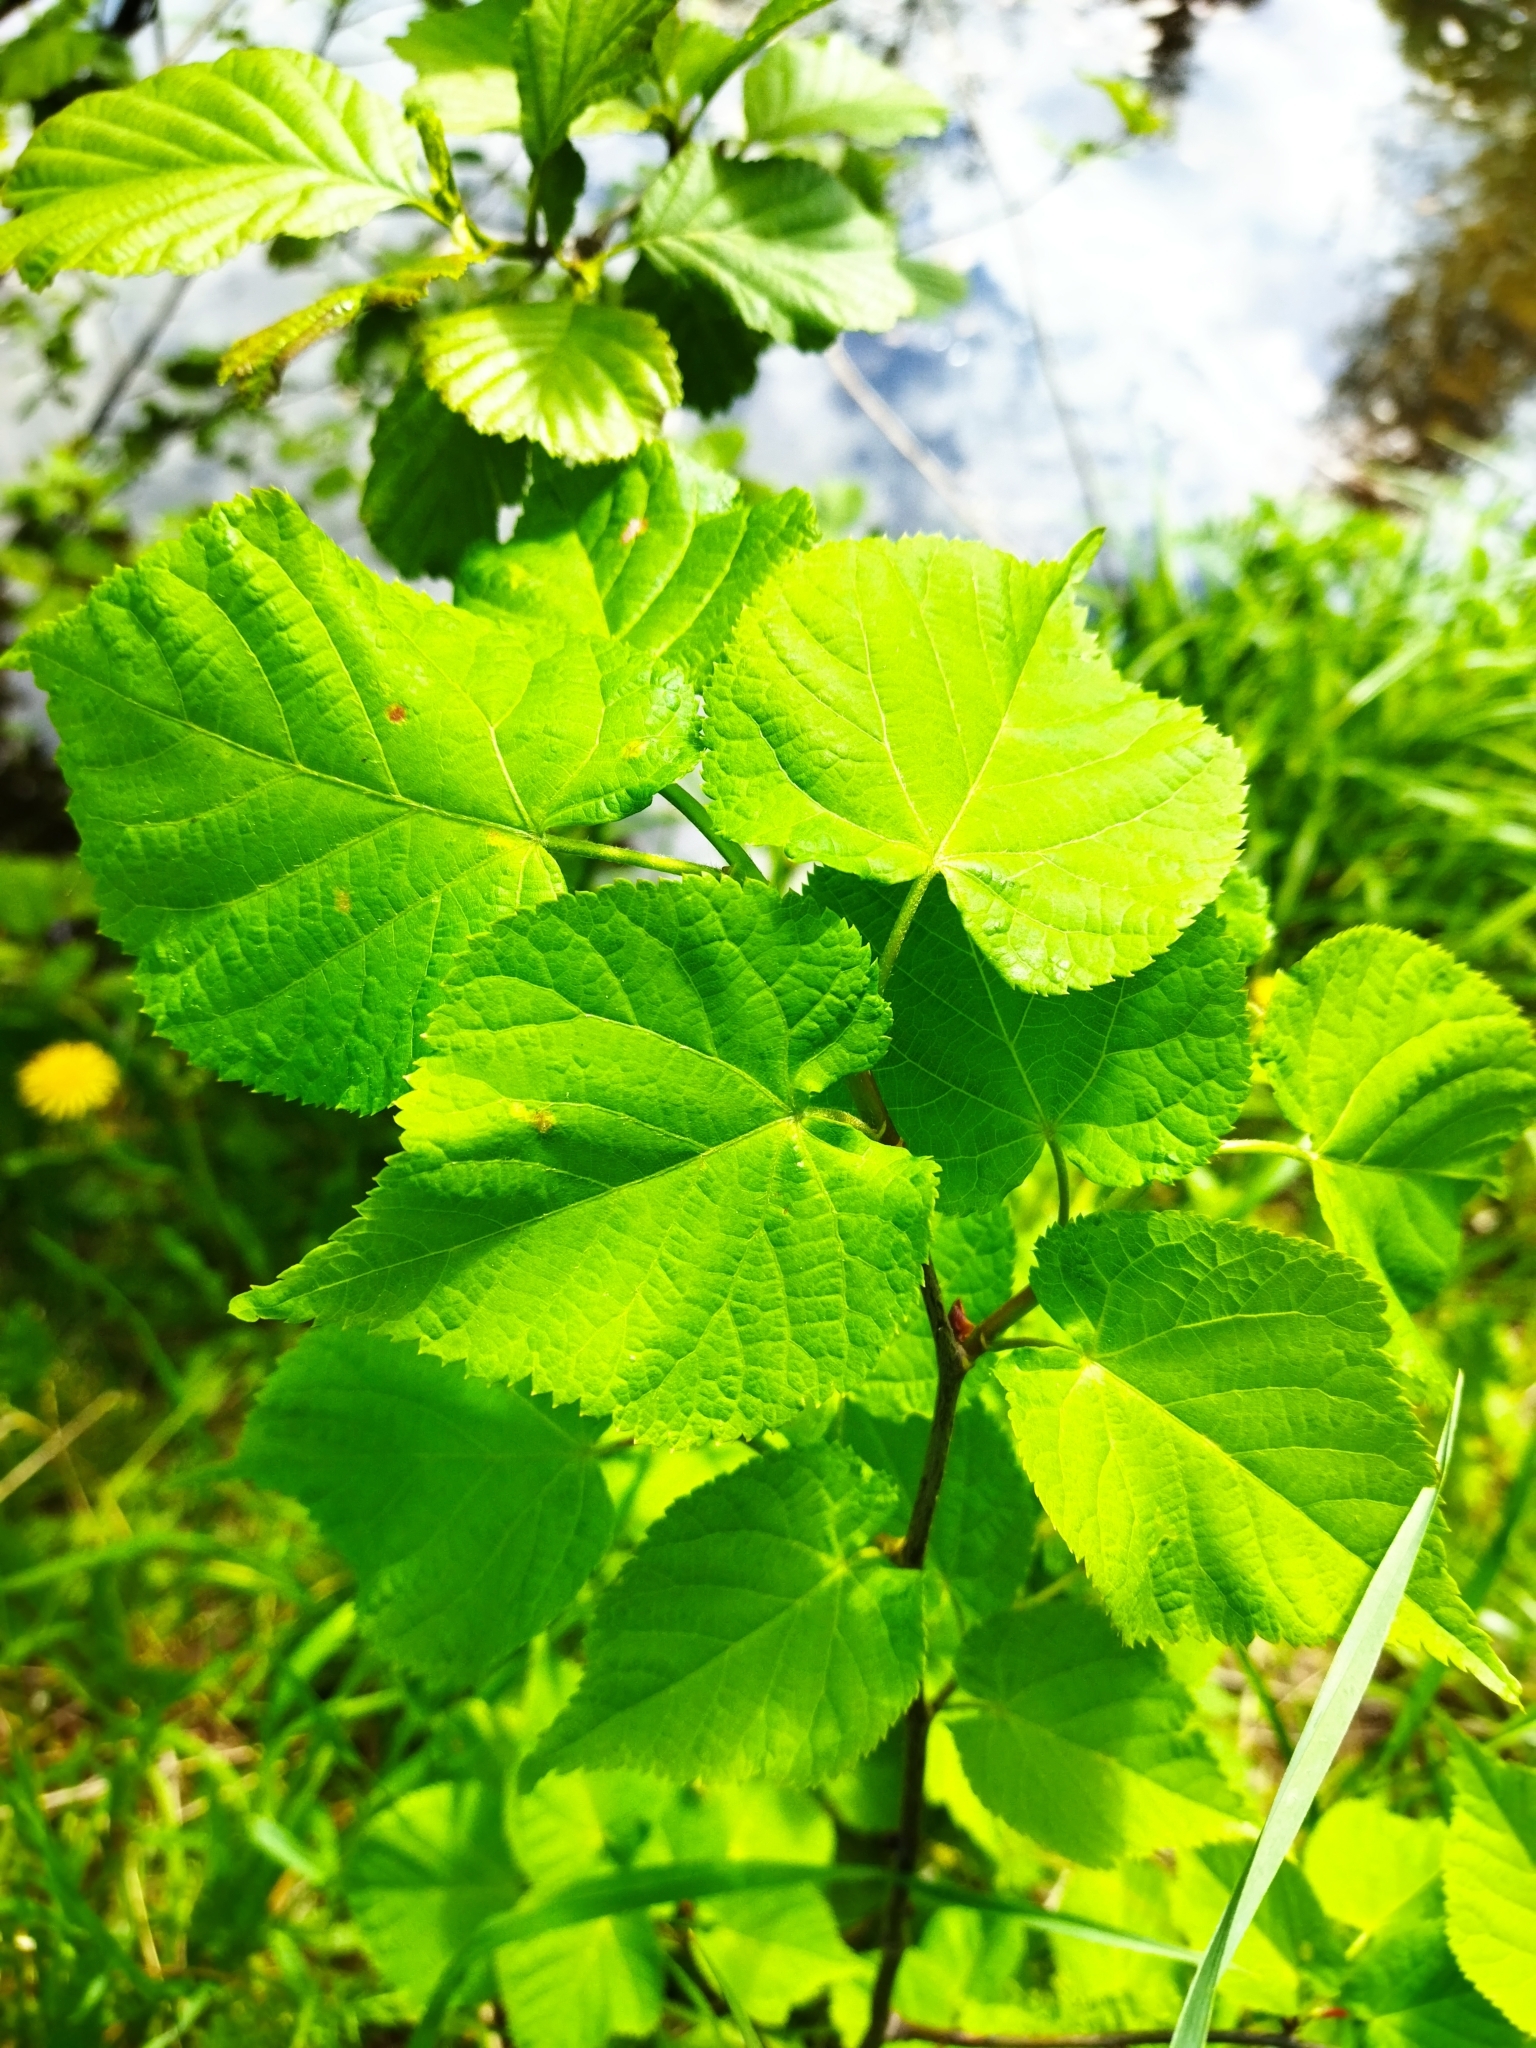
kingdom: Plantae
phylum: Tracheophyta
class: Magnoliopsida
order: Malvales
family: Malvaceae
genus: Tilia
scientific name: Tilia cordata
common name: Small-leaved lime
